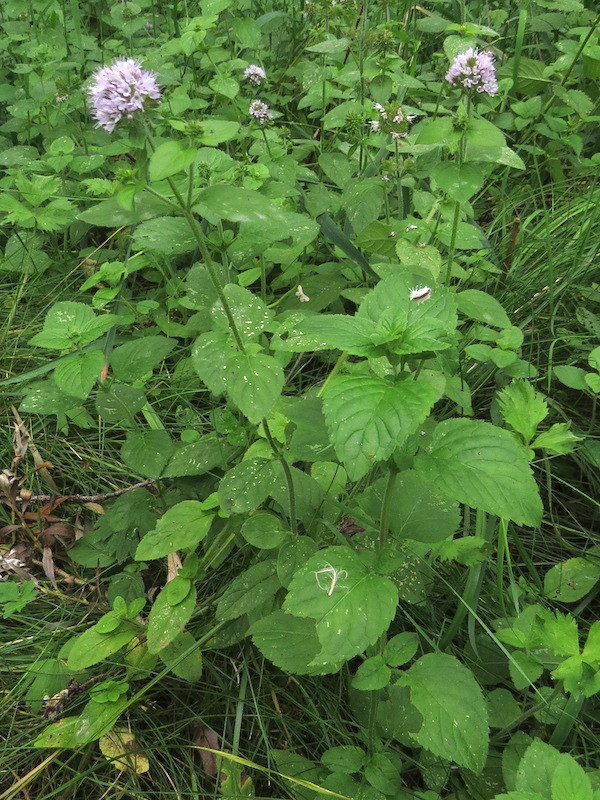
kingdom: Plantae
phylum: Tracheophyta
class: Magnoliopsida
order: Lamiales
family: Lamiaceae
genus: Mentha
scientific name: Mentha aquatica
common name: Water mint
